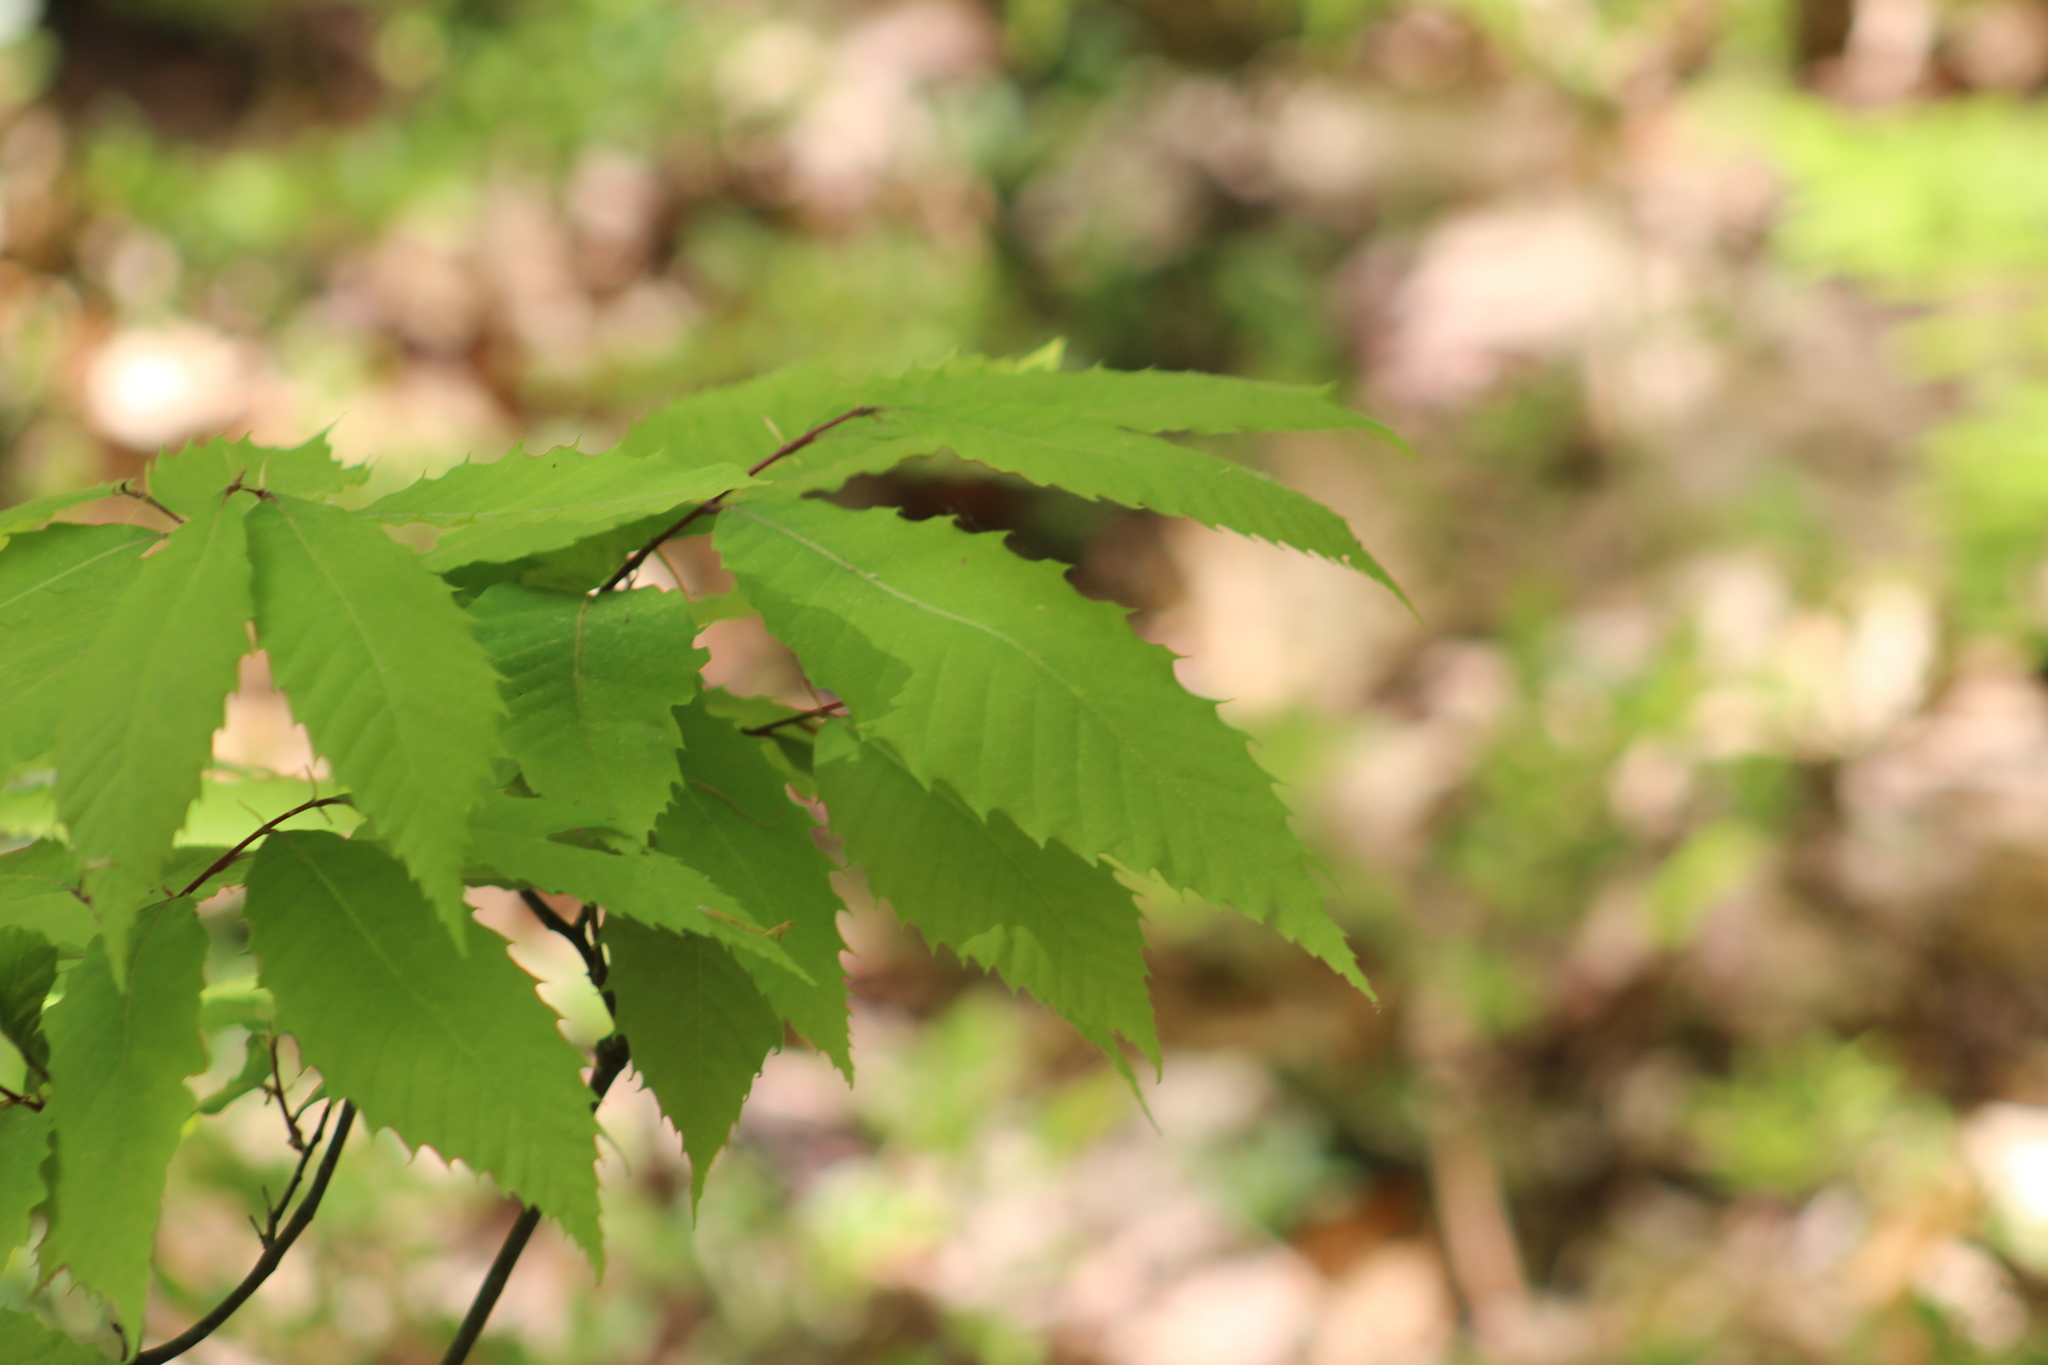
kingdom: Plantae
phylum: Tracheophyta
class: Magnoliopsida
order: Fagales
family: Fagaceae
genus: Castanea
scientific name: Castanea dentata
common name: American chestnut
